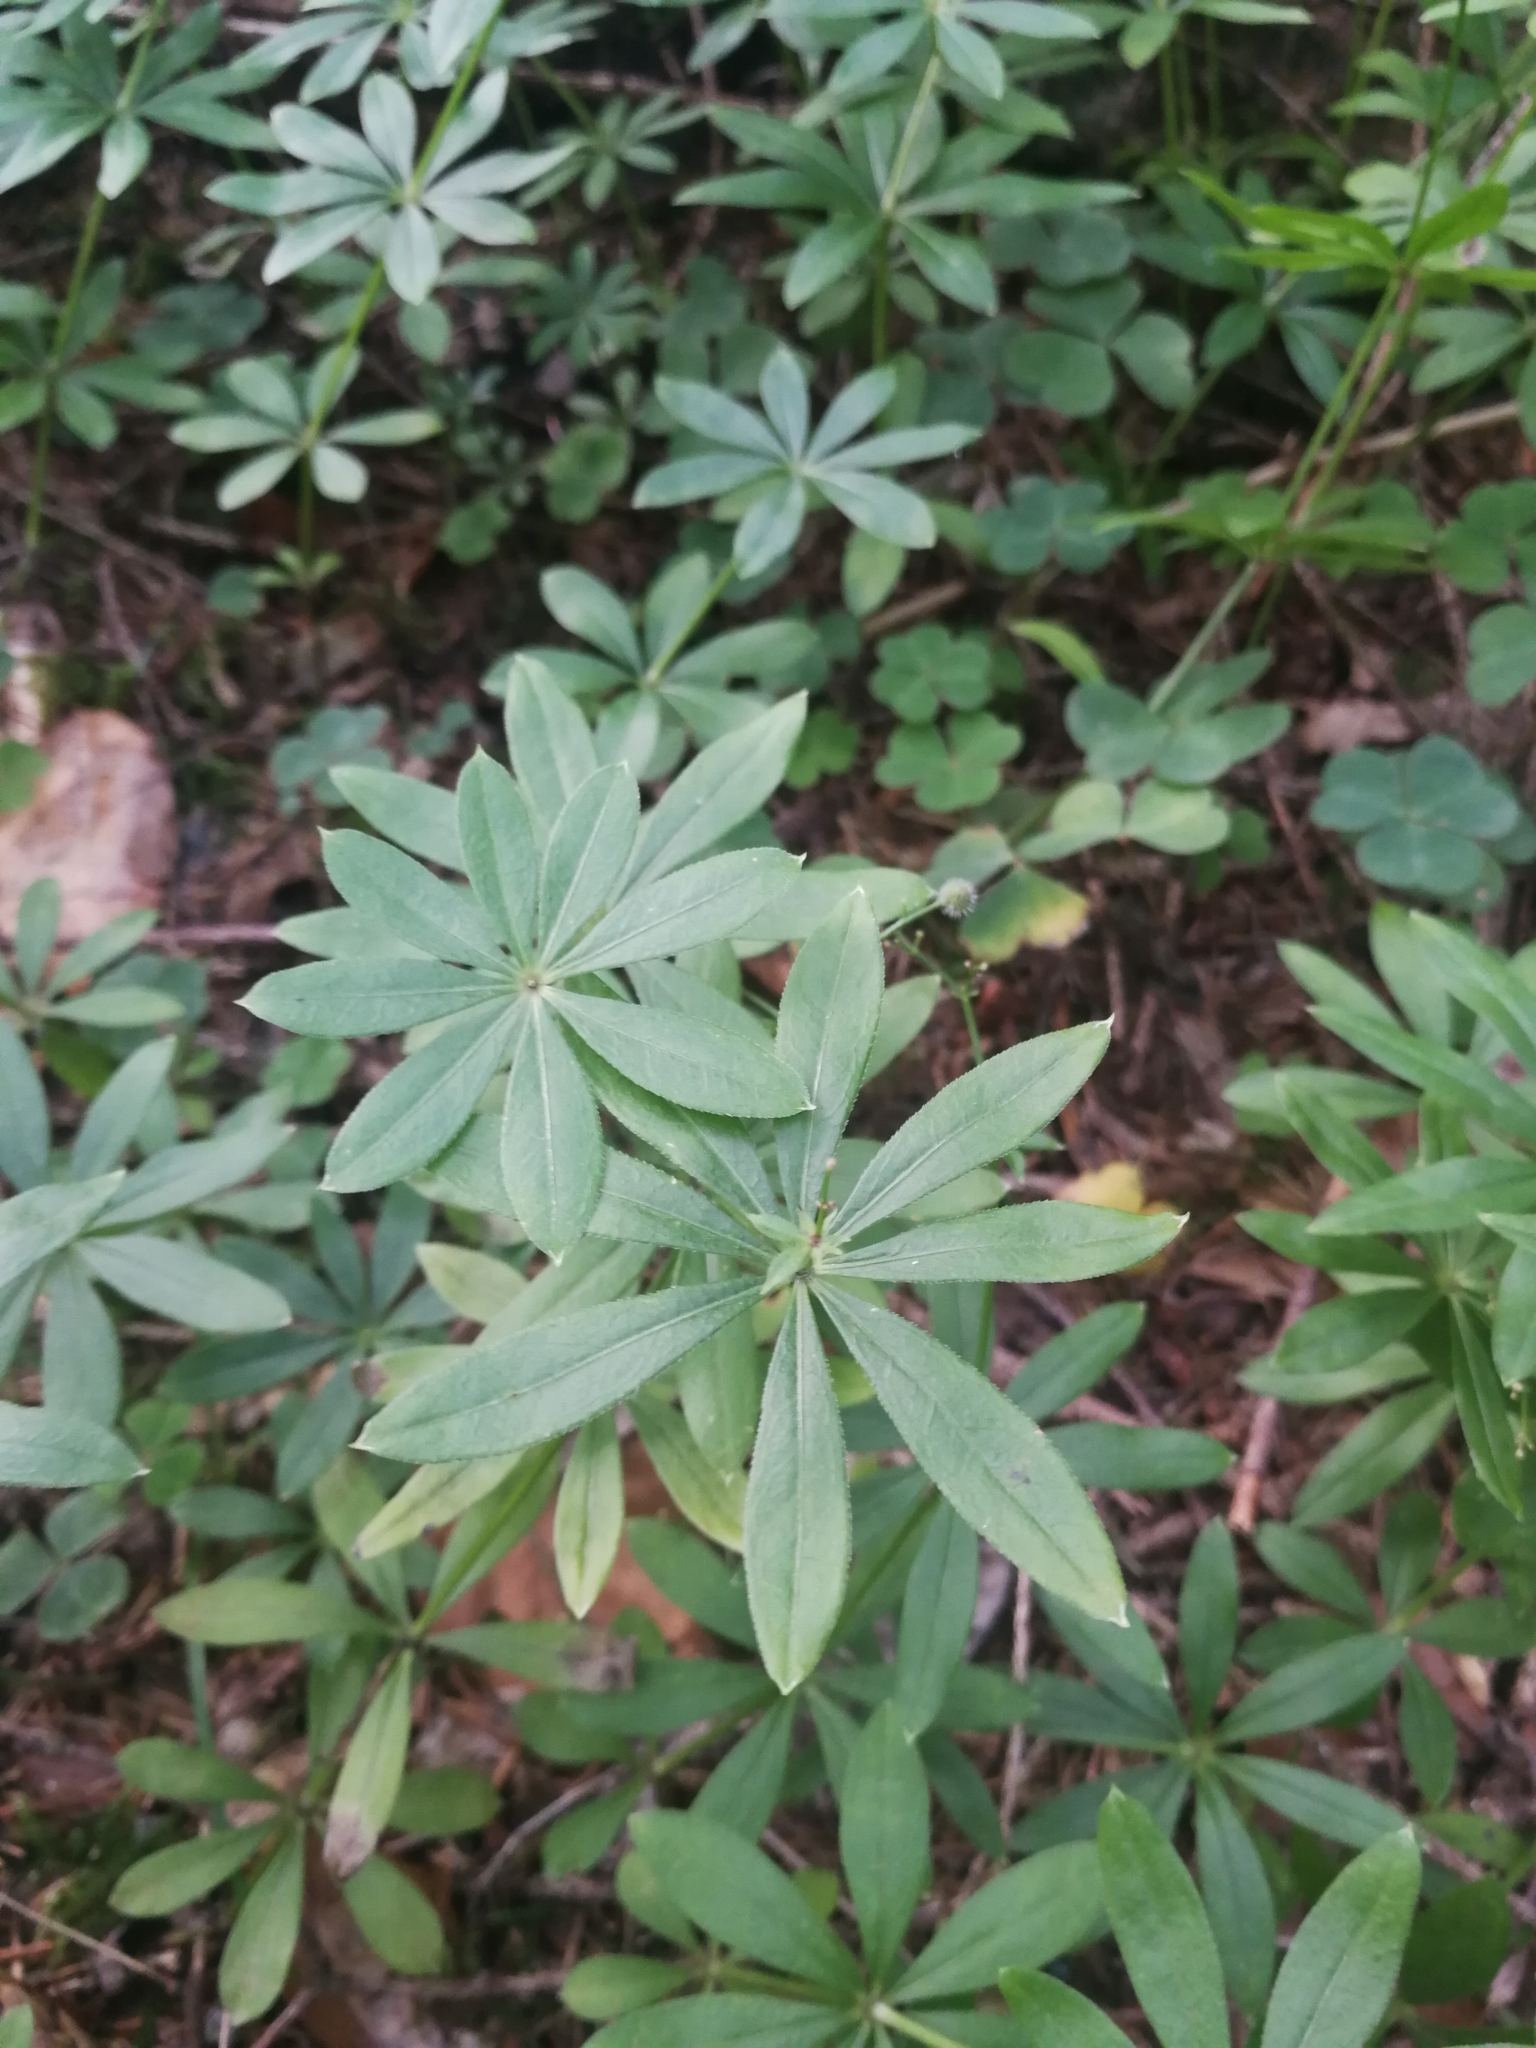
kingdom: Plantae
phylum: Tracheophyta
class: Magnoliopsida
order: Gentianales
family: Rubiaceae
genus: Galium
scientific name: Galium odoratum
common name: Sweet woodruff
